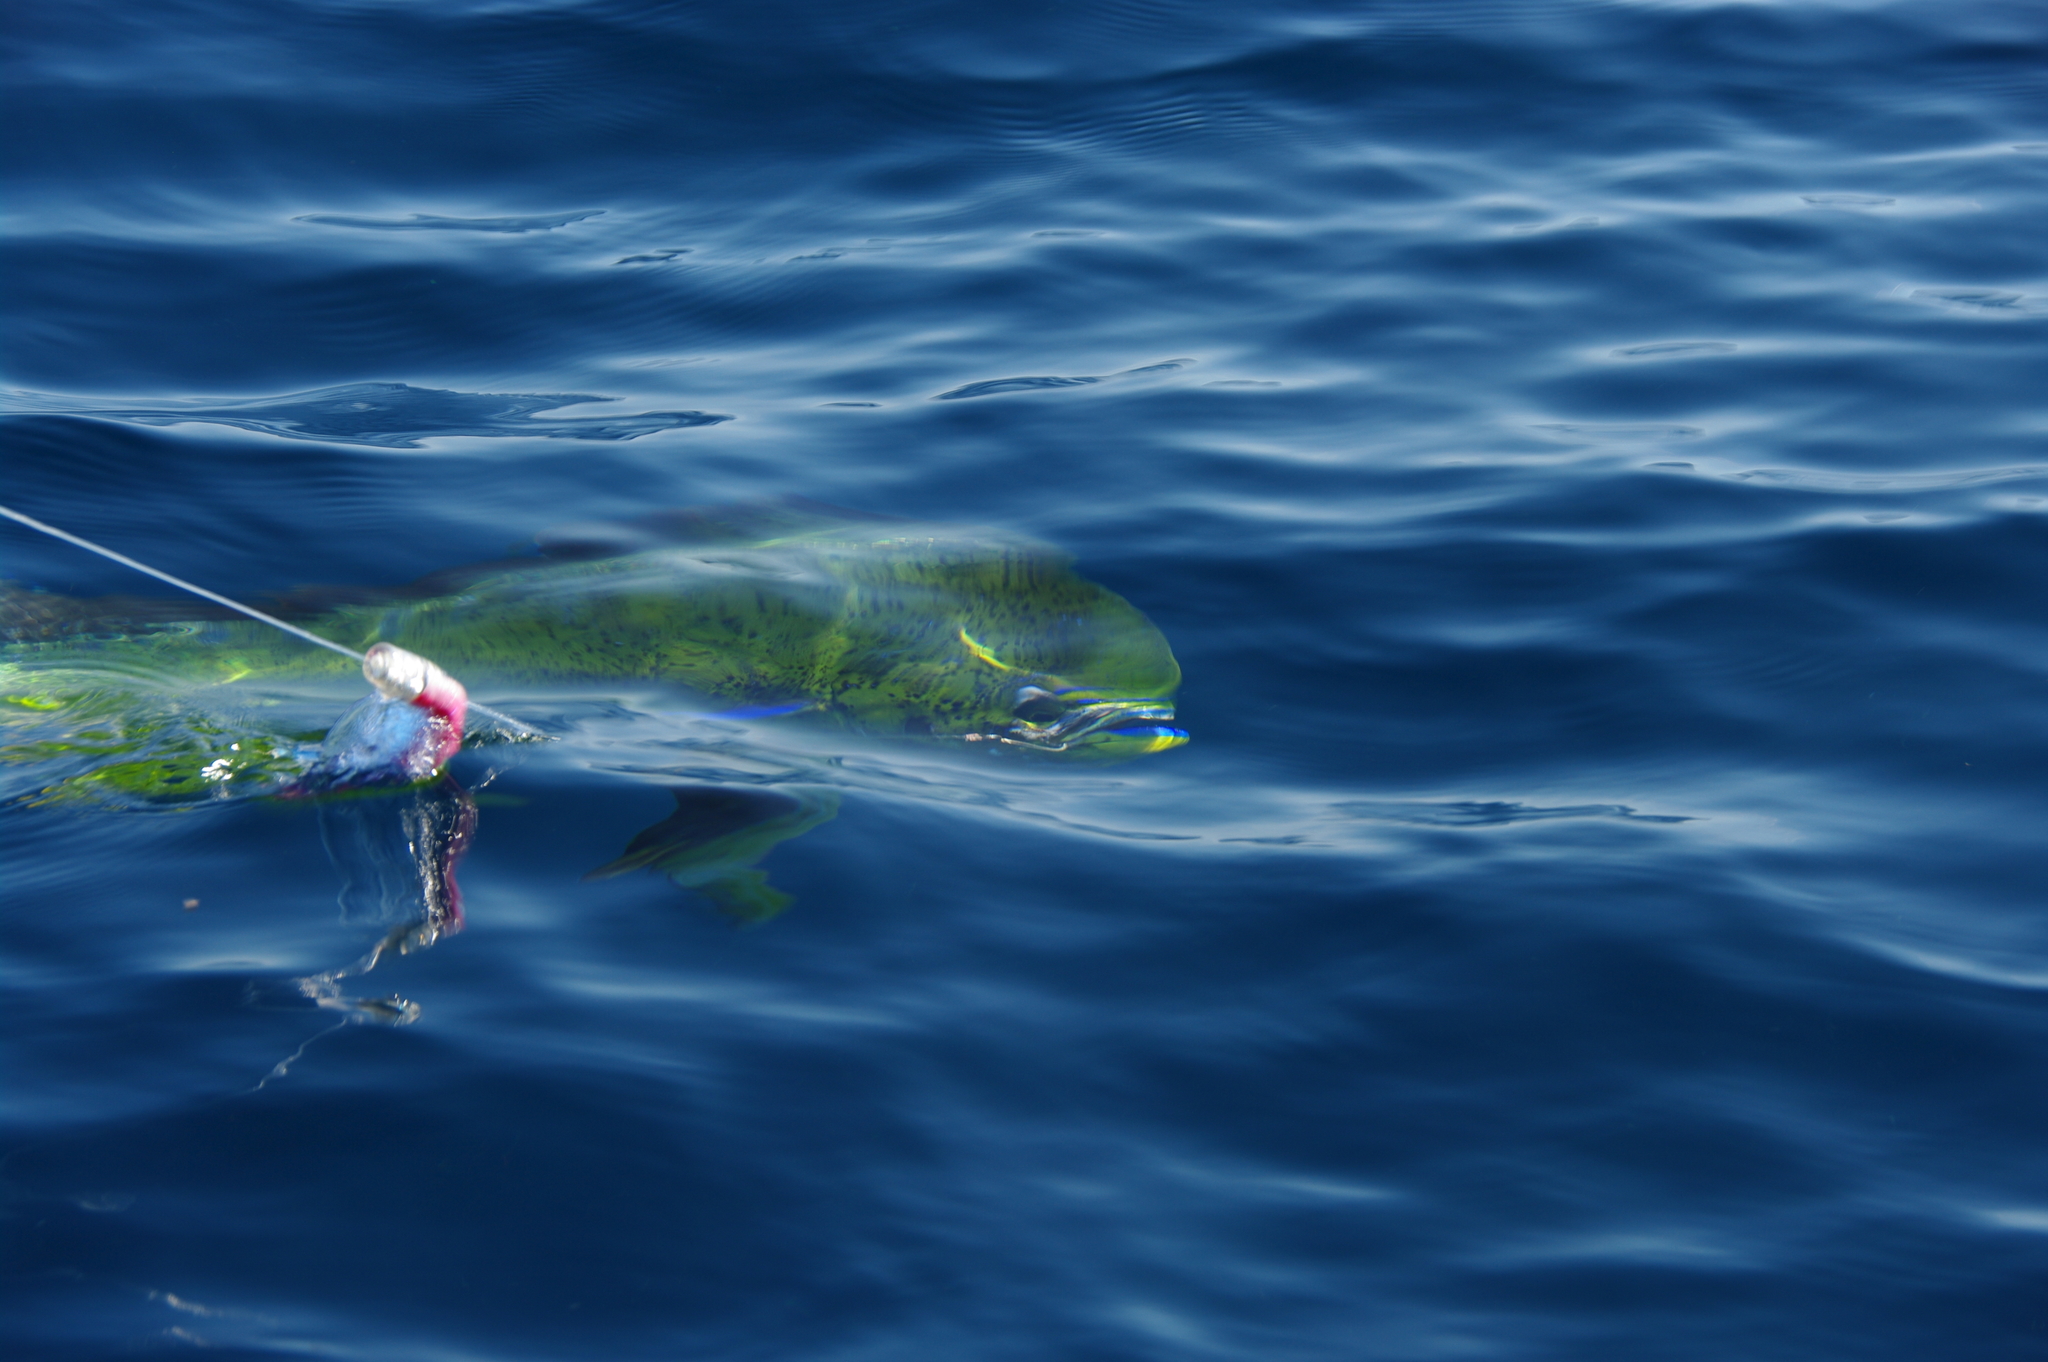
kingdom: Animalia
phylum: Chordata
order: Perciformes
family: Coryphaenidae
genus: Coryphaena
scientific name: Coryphaena hippurus
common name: Dolphin
